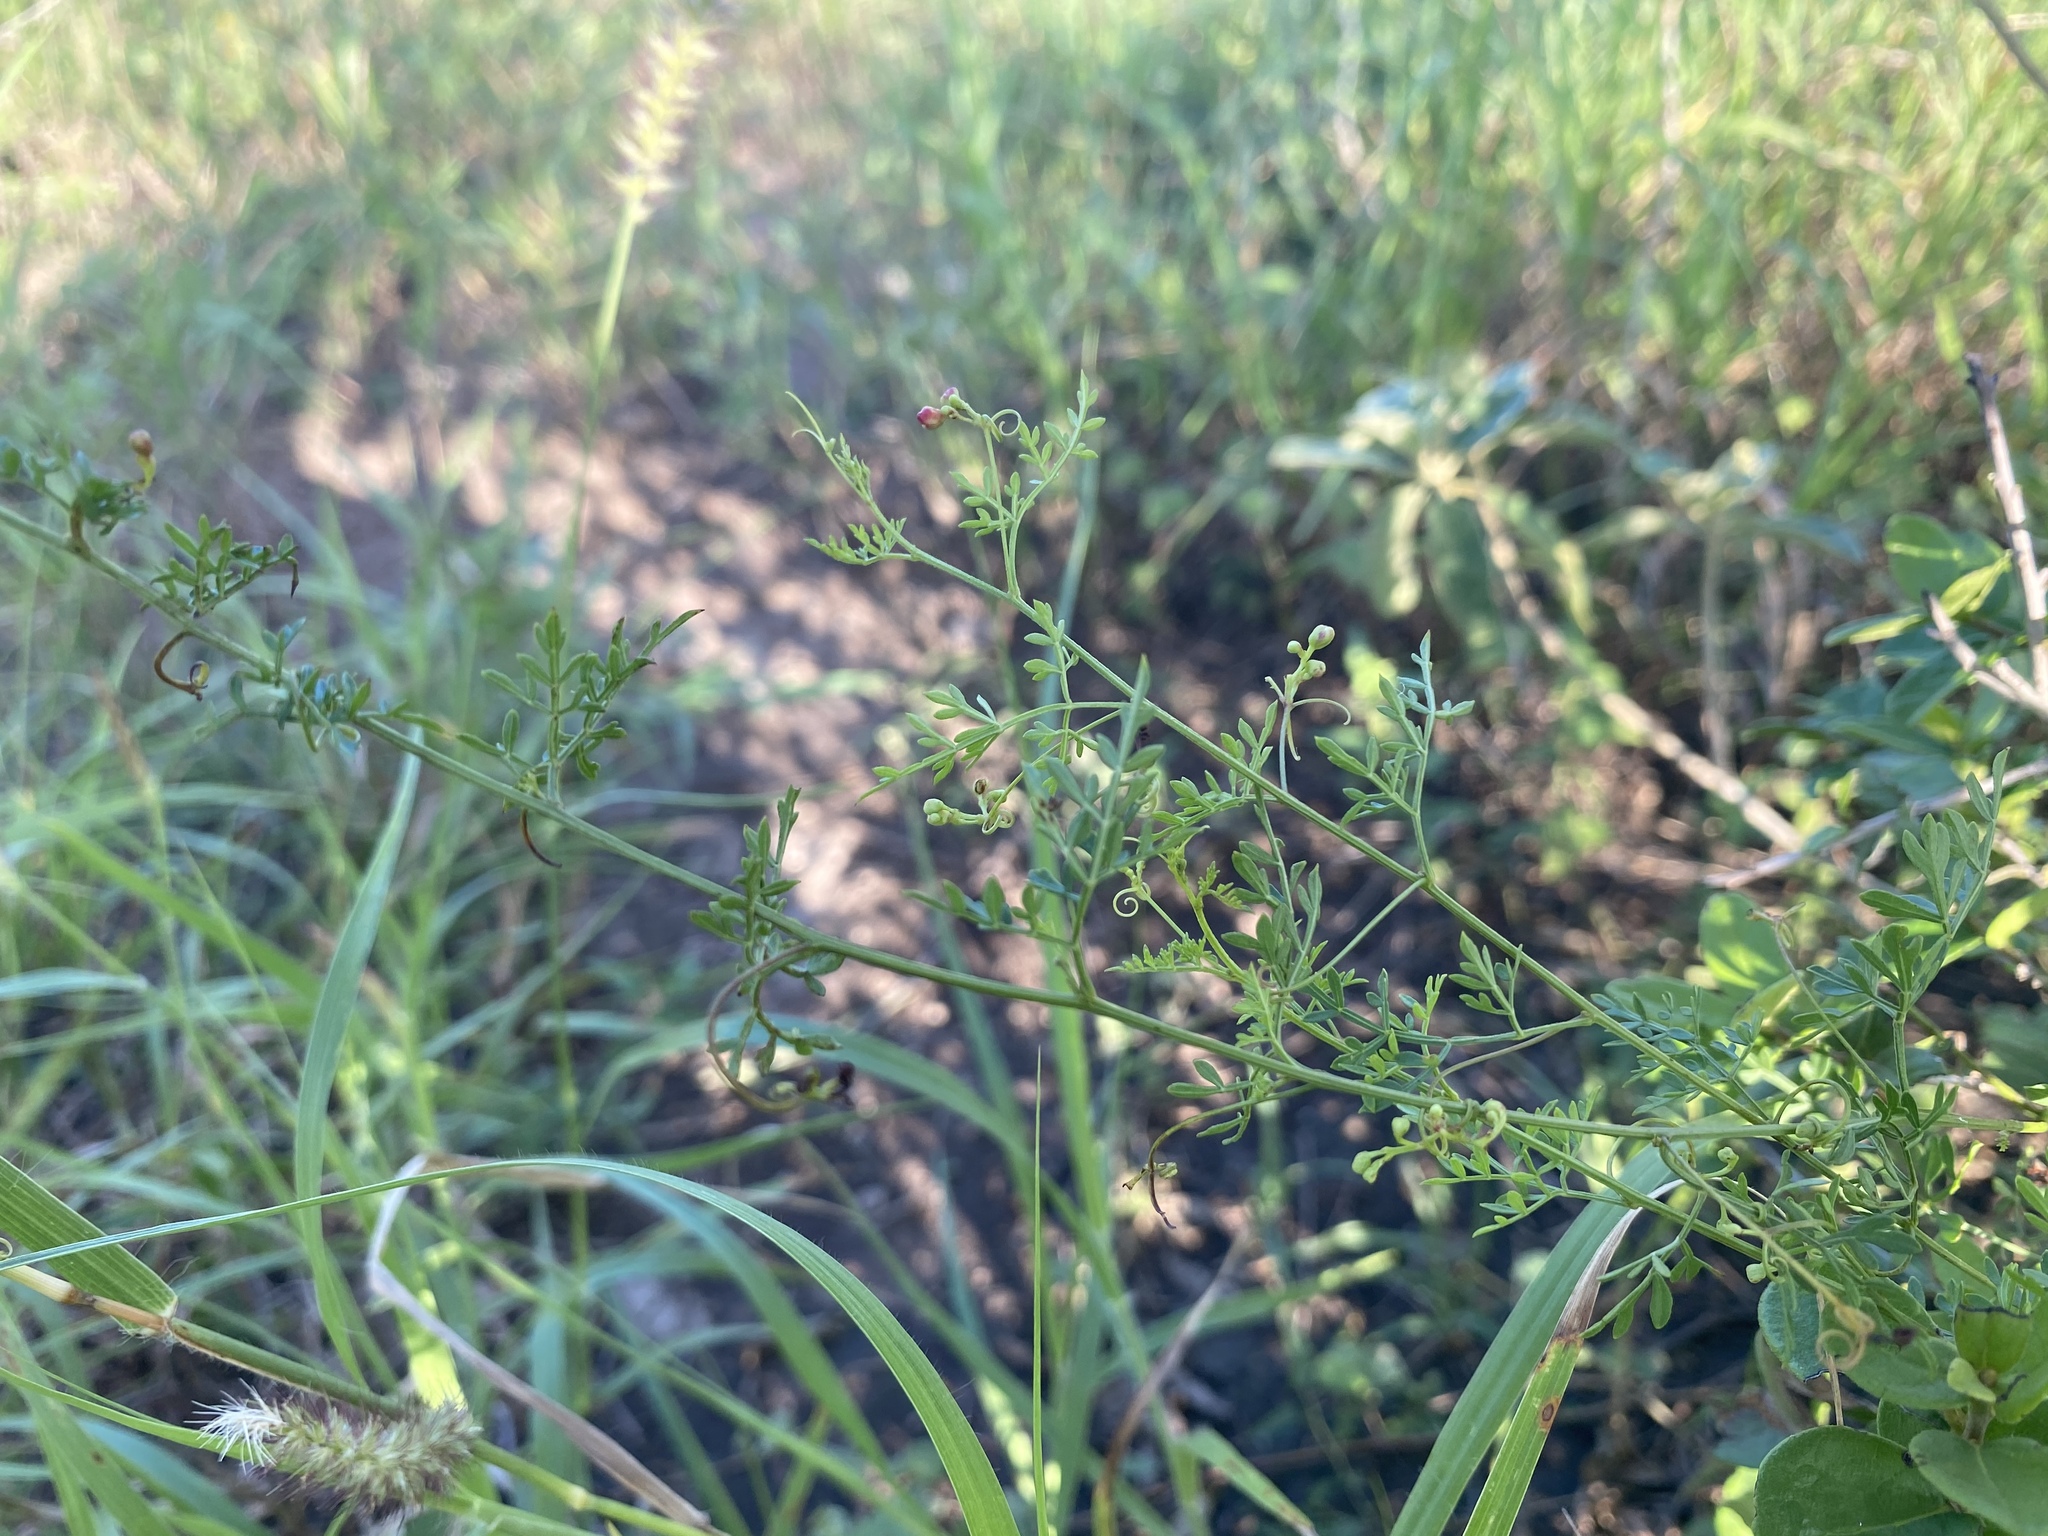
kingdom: Plantae
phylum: Tracheophyta
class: Magnoliopsida
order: Sapindales
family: Sapindaceae
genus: Serjania
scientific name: Serjania dissecta
